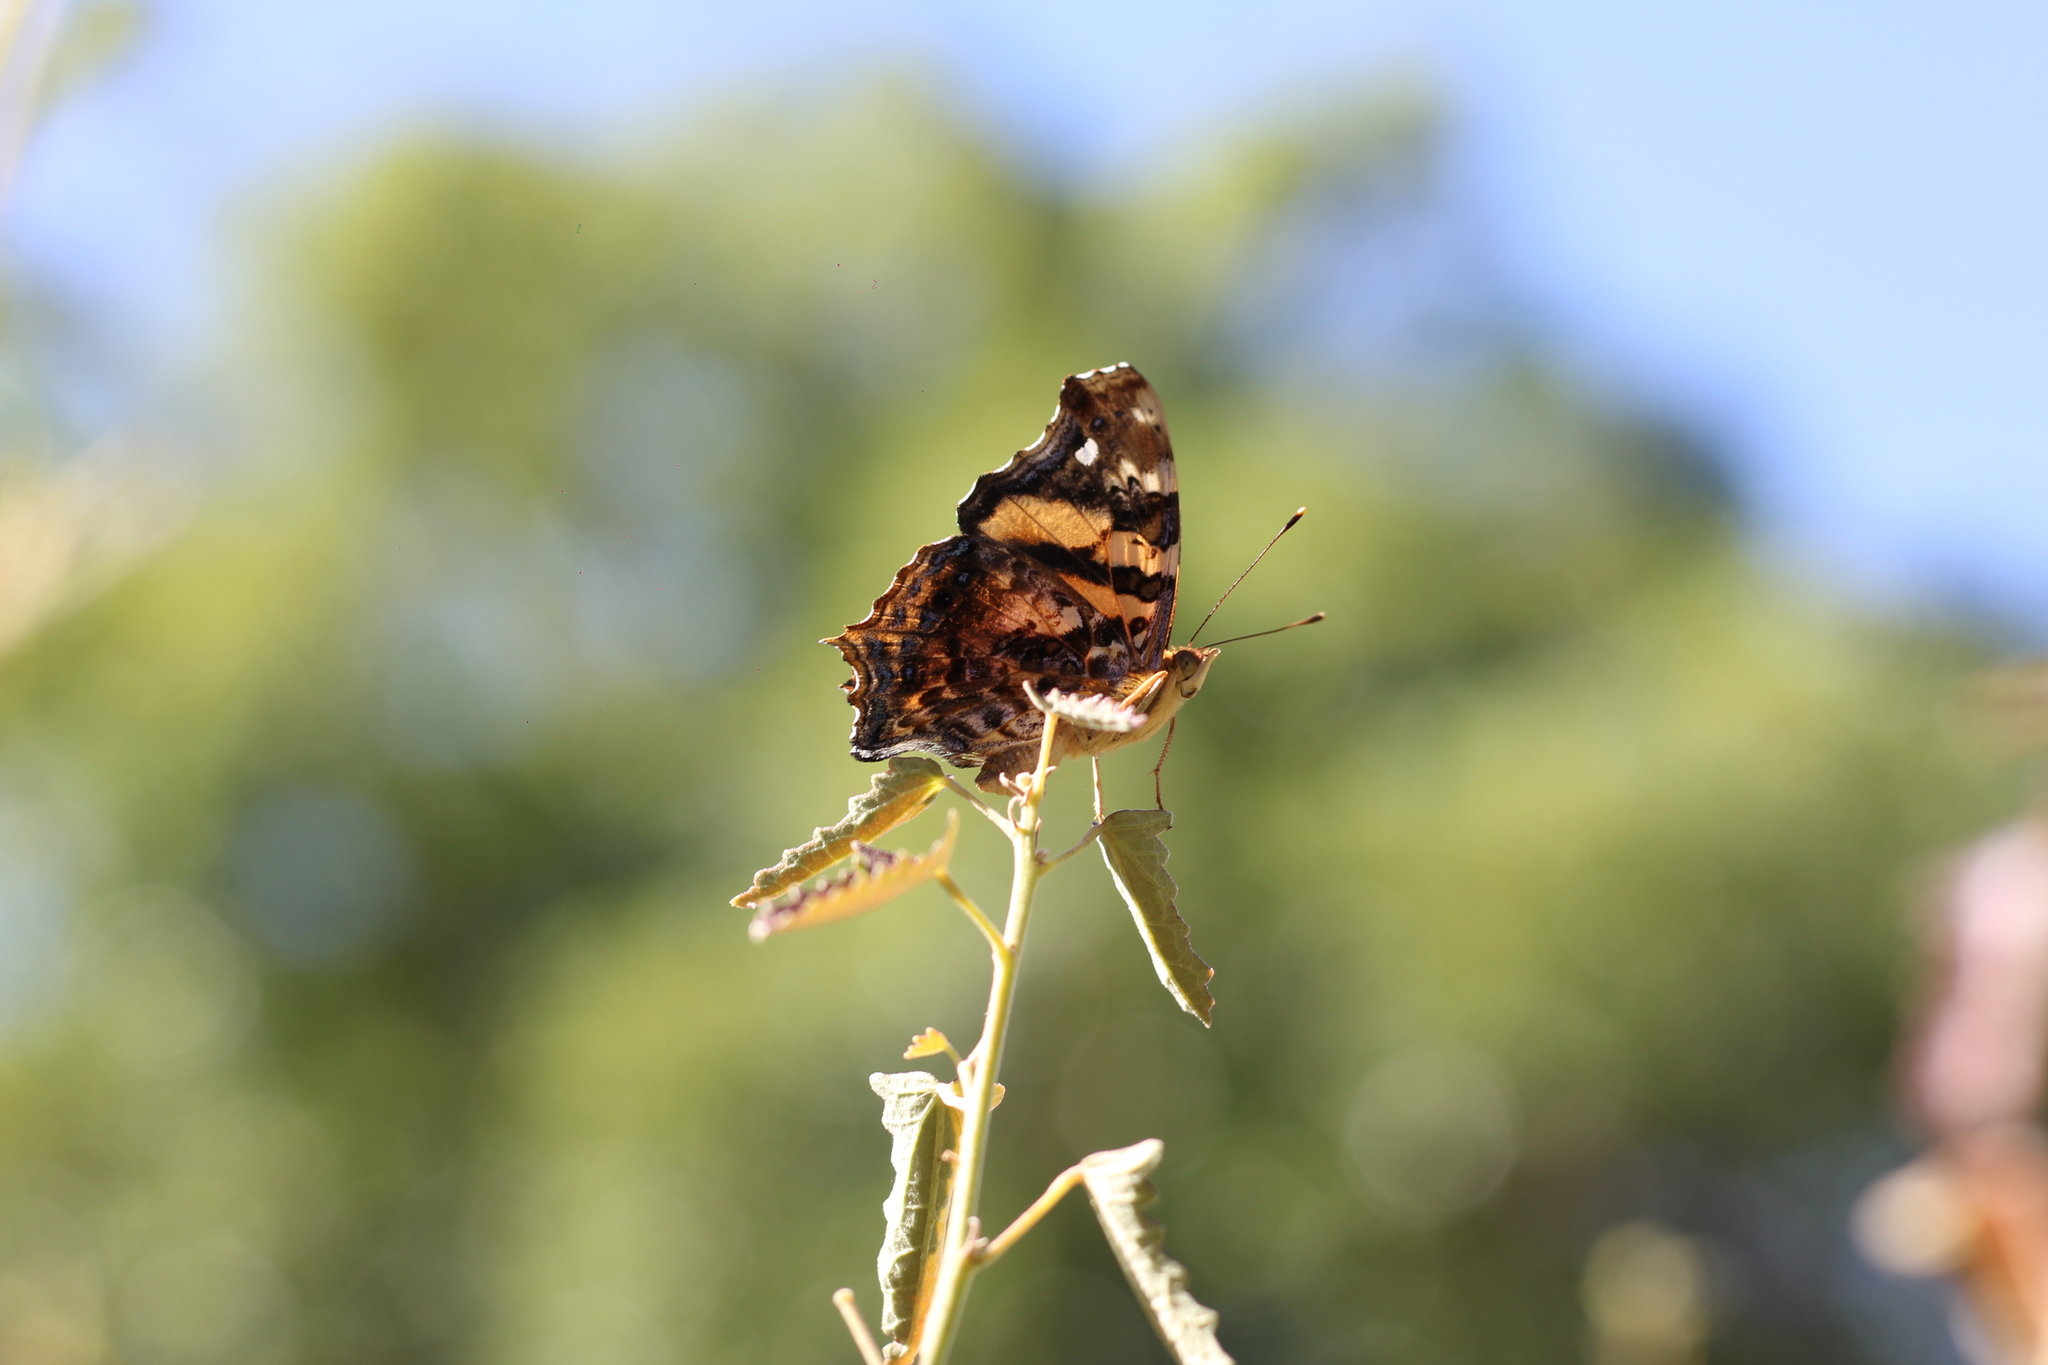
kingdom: Animalia
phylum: Arthropoda
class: Insecta
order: Lepidoptera
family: Nymphalidae
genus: Hypanartia
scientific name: Hypanartia bella
